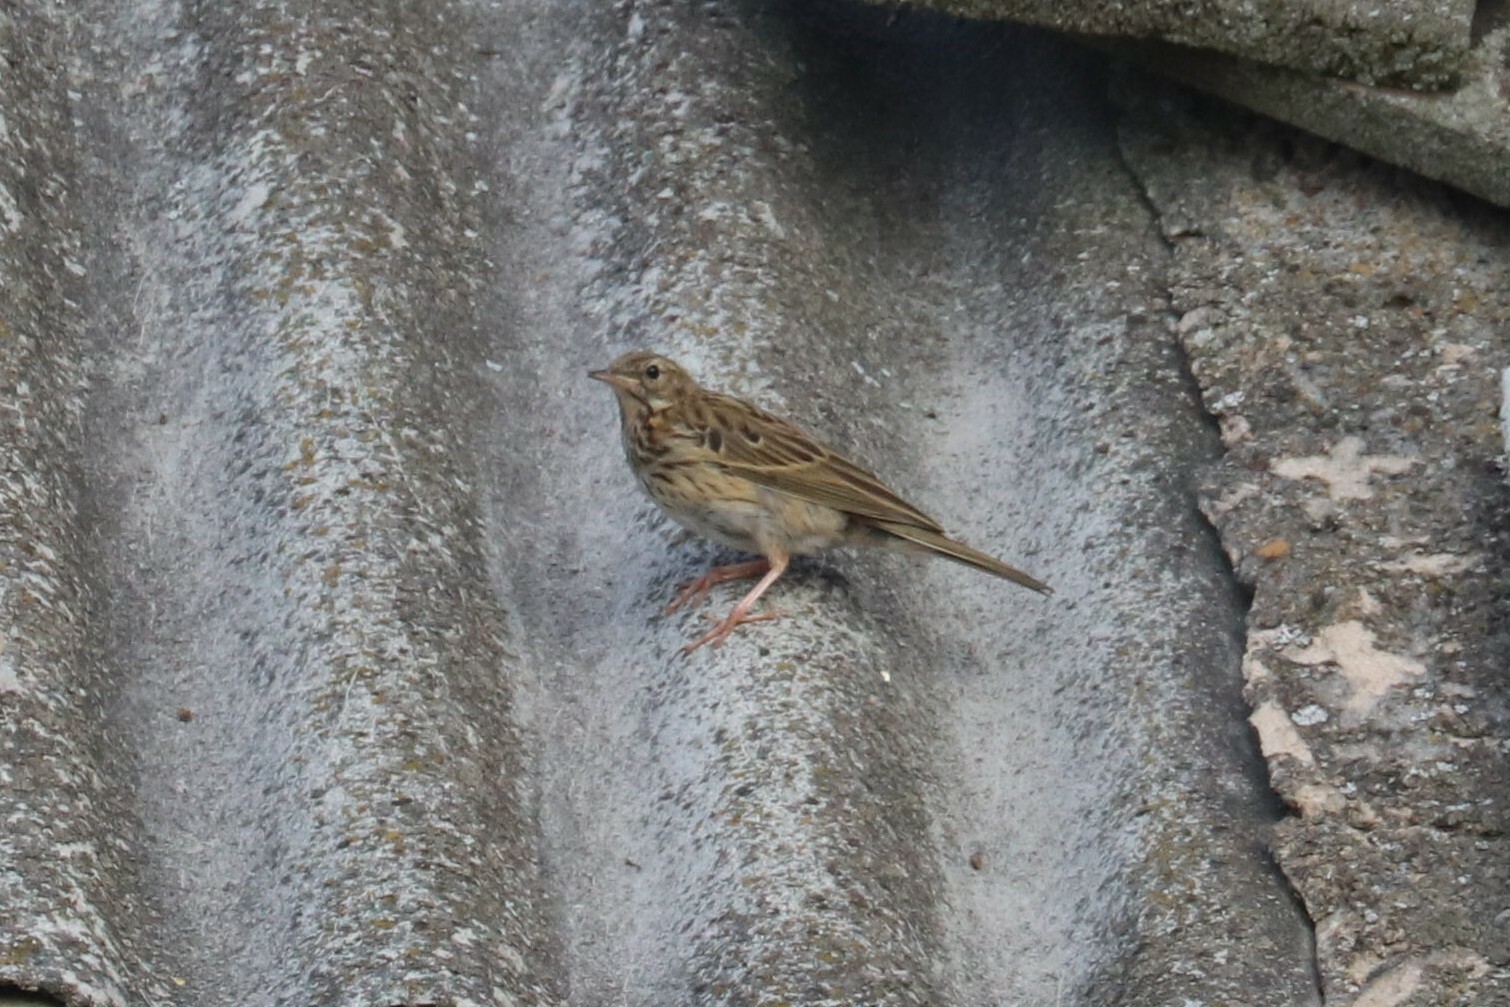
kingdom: Animalia
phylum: Chordata
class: Aves
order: Passeriformes
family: Motacillidae
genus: Anthus
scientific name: Anthus trivialis
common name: Tree pipit
